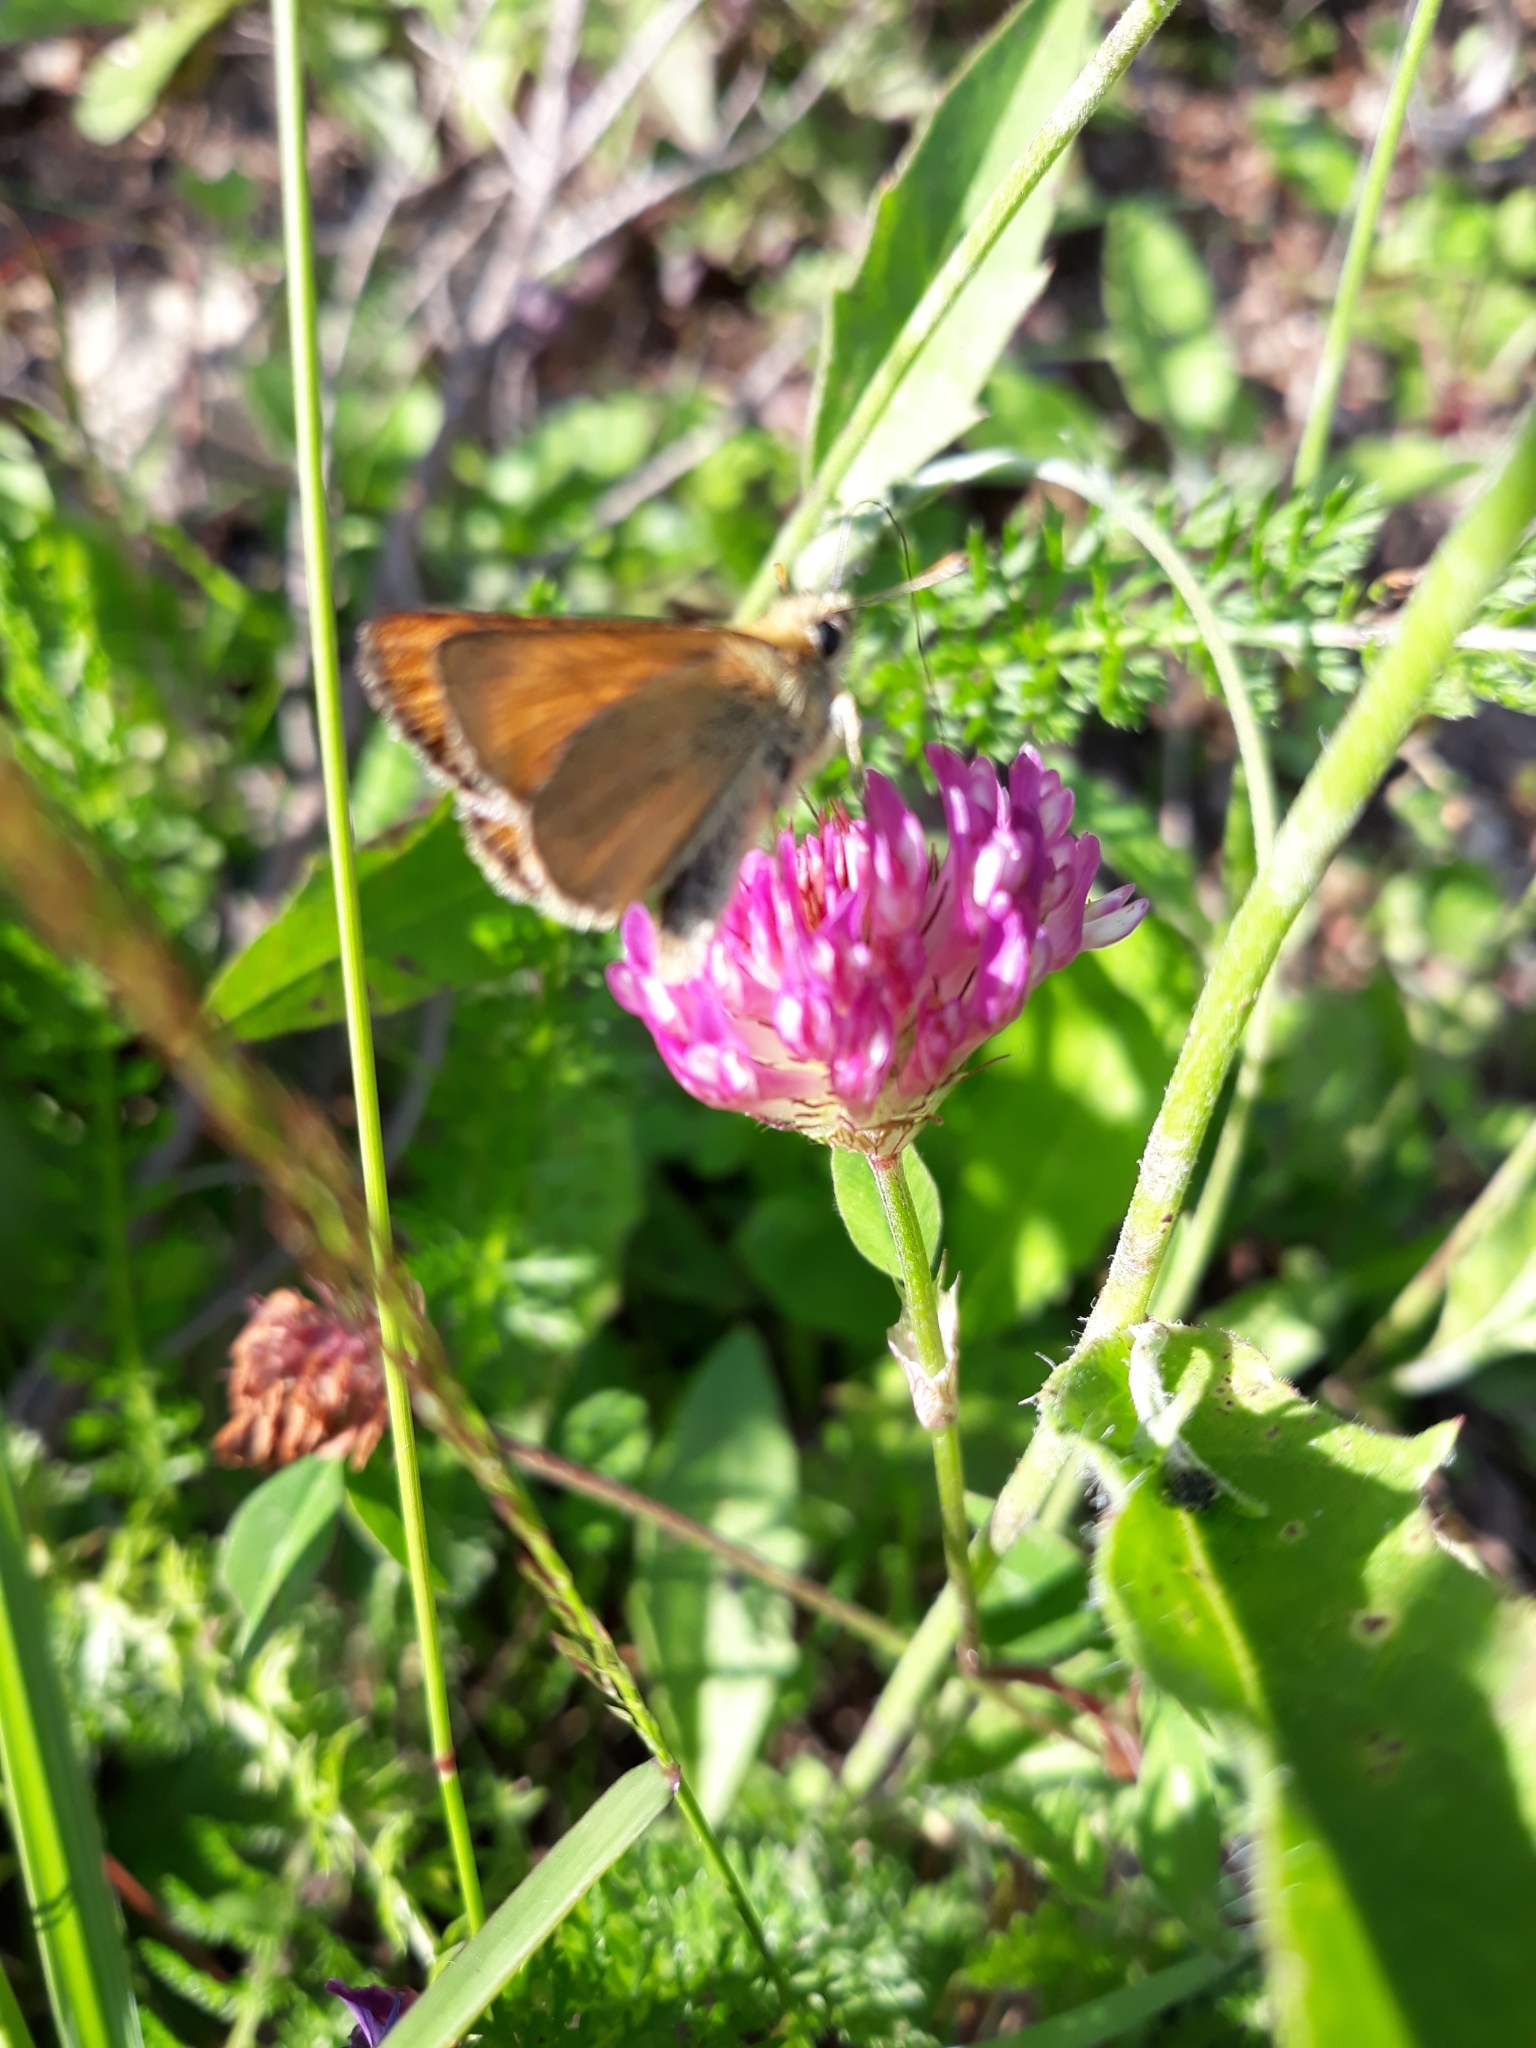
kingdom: Animalia
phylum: Arthropoda
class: Insecta
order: Lepidoptera
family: Hesperiidae
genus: Thymelicus
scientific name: Thymelicus sylvestris
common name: Small skipper
